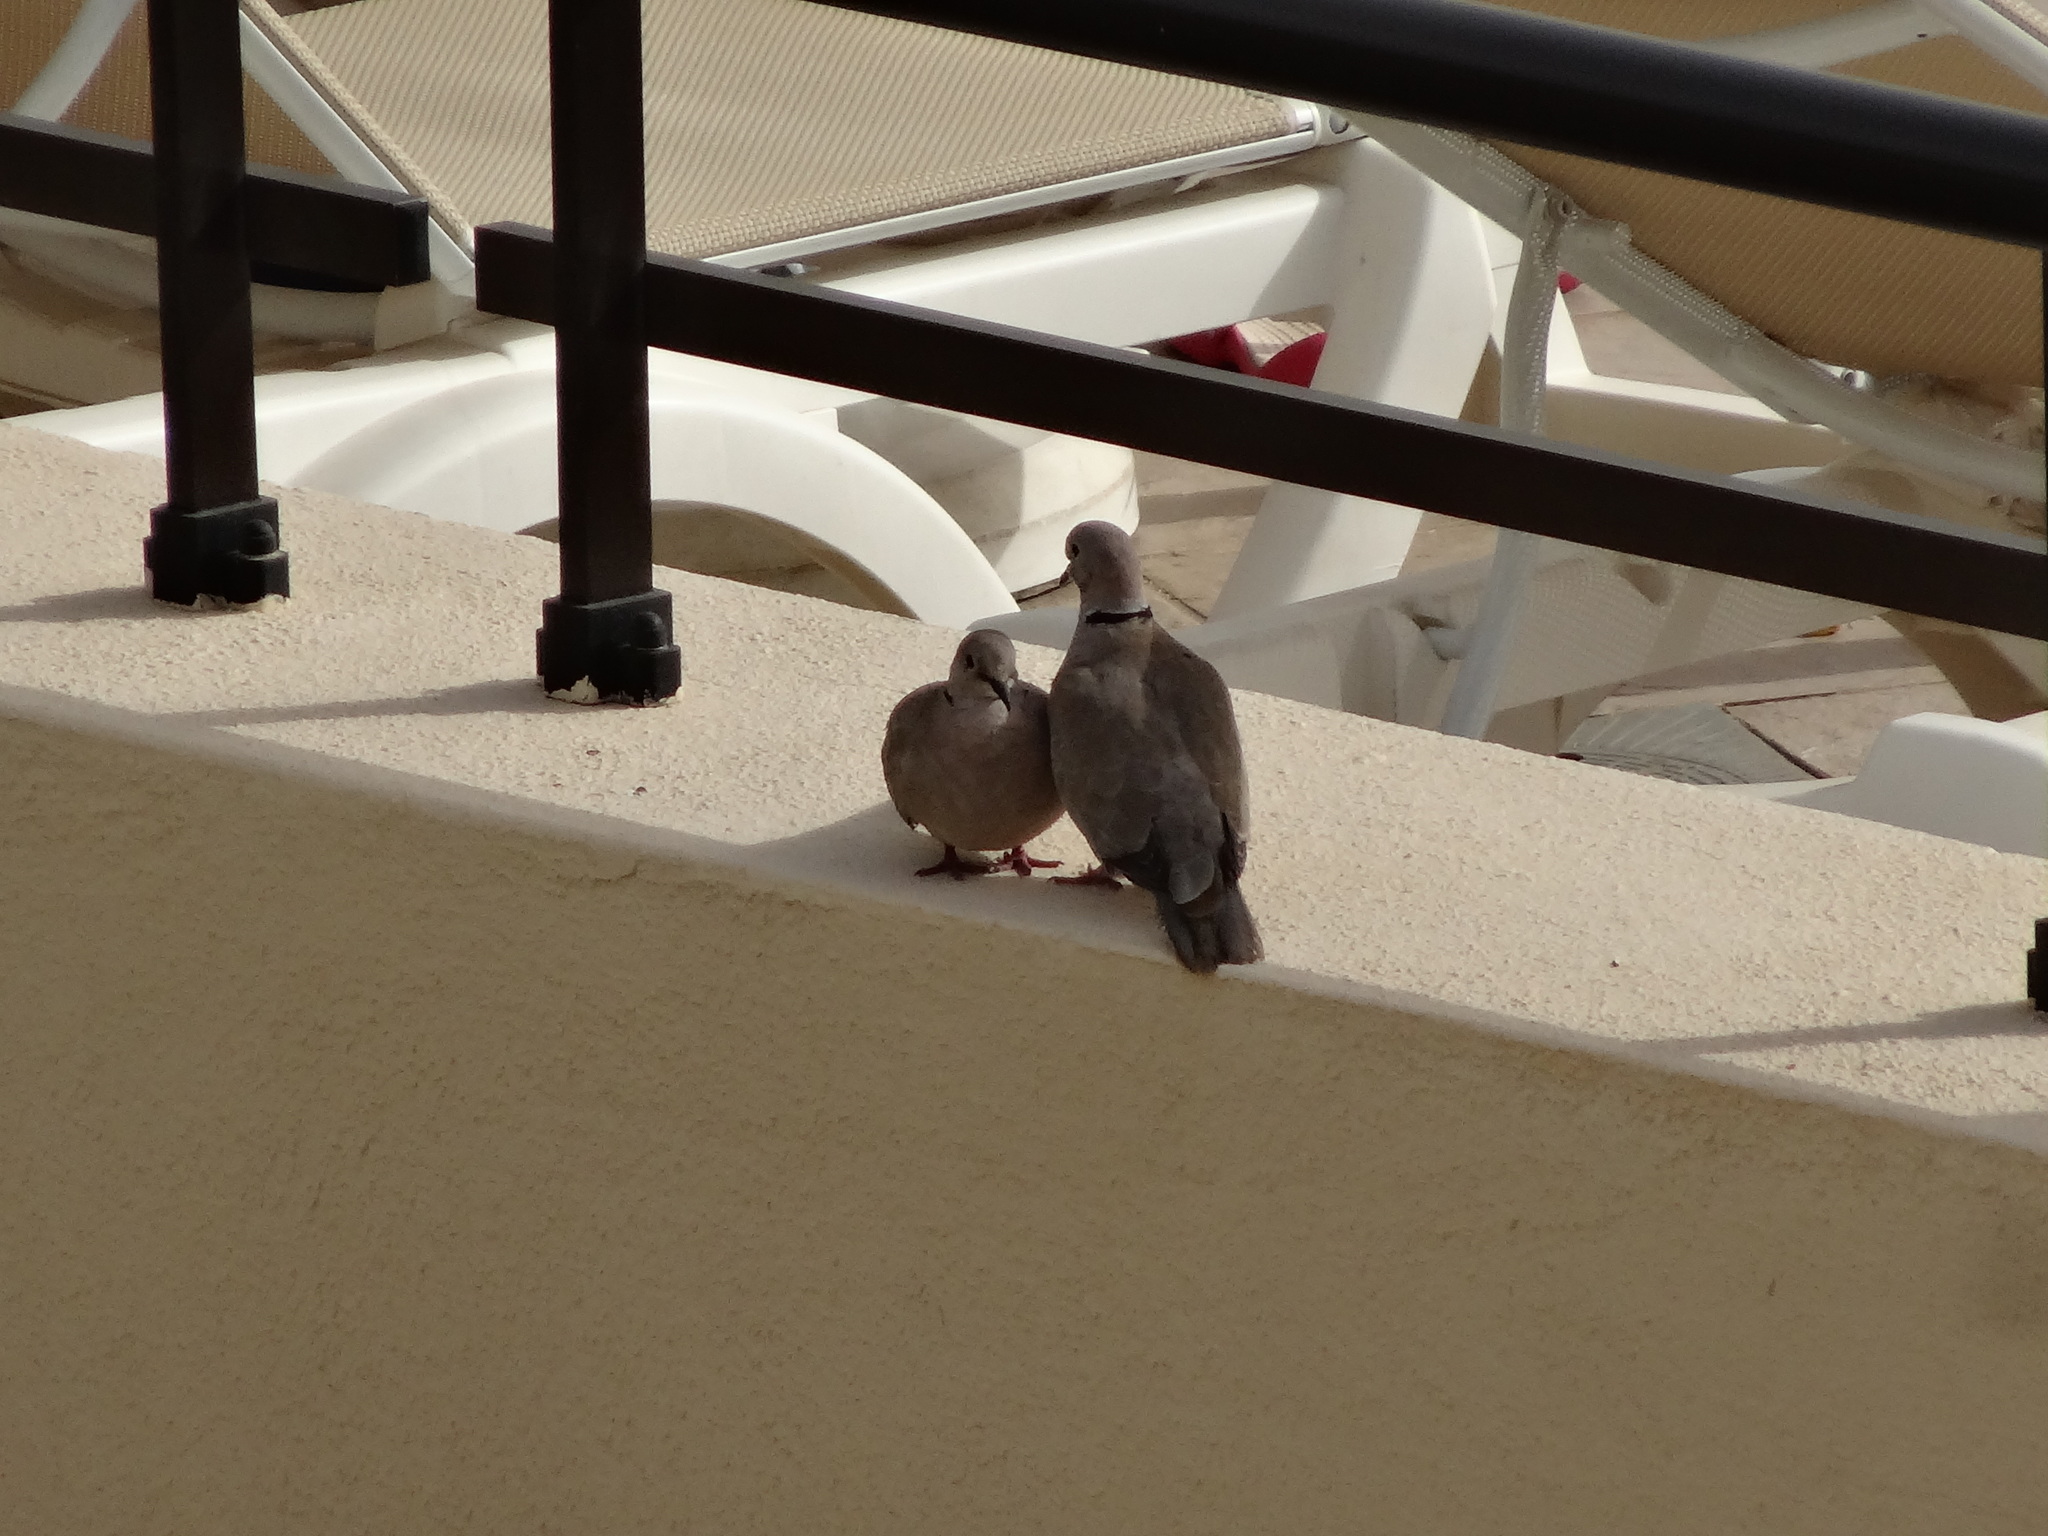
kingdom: Animalia
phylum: Chordata
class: Aves
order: Columbiformes
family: Columbidae
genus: Streptopelia
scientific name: Streptopelia decaocto
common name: Eurasian collared dove
